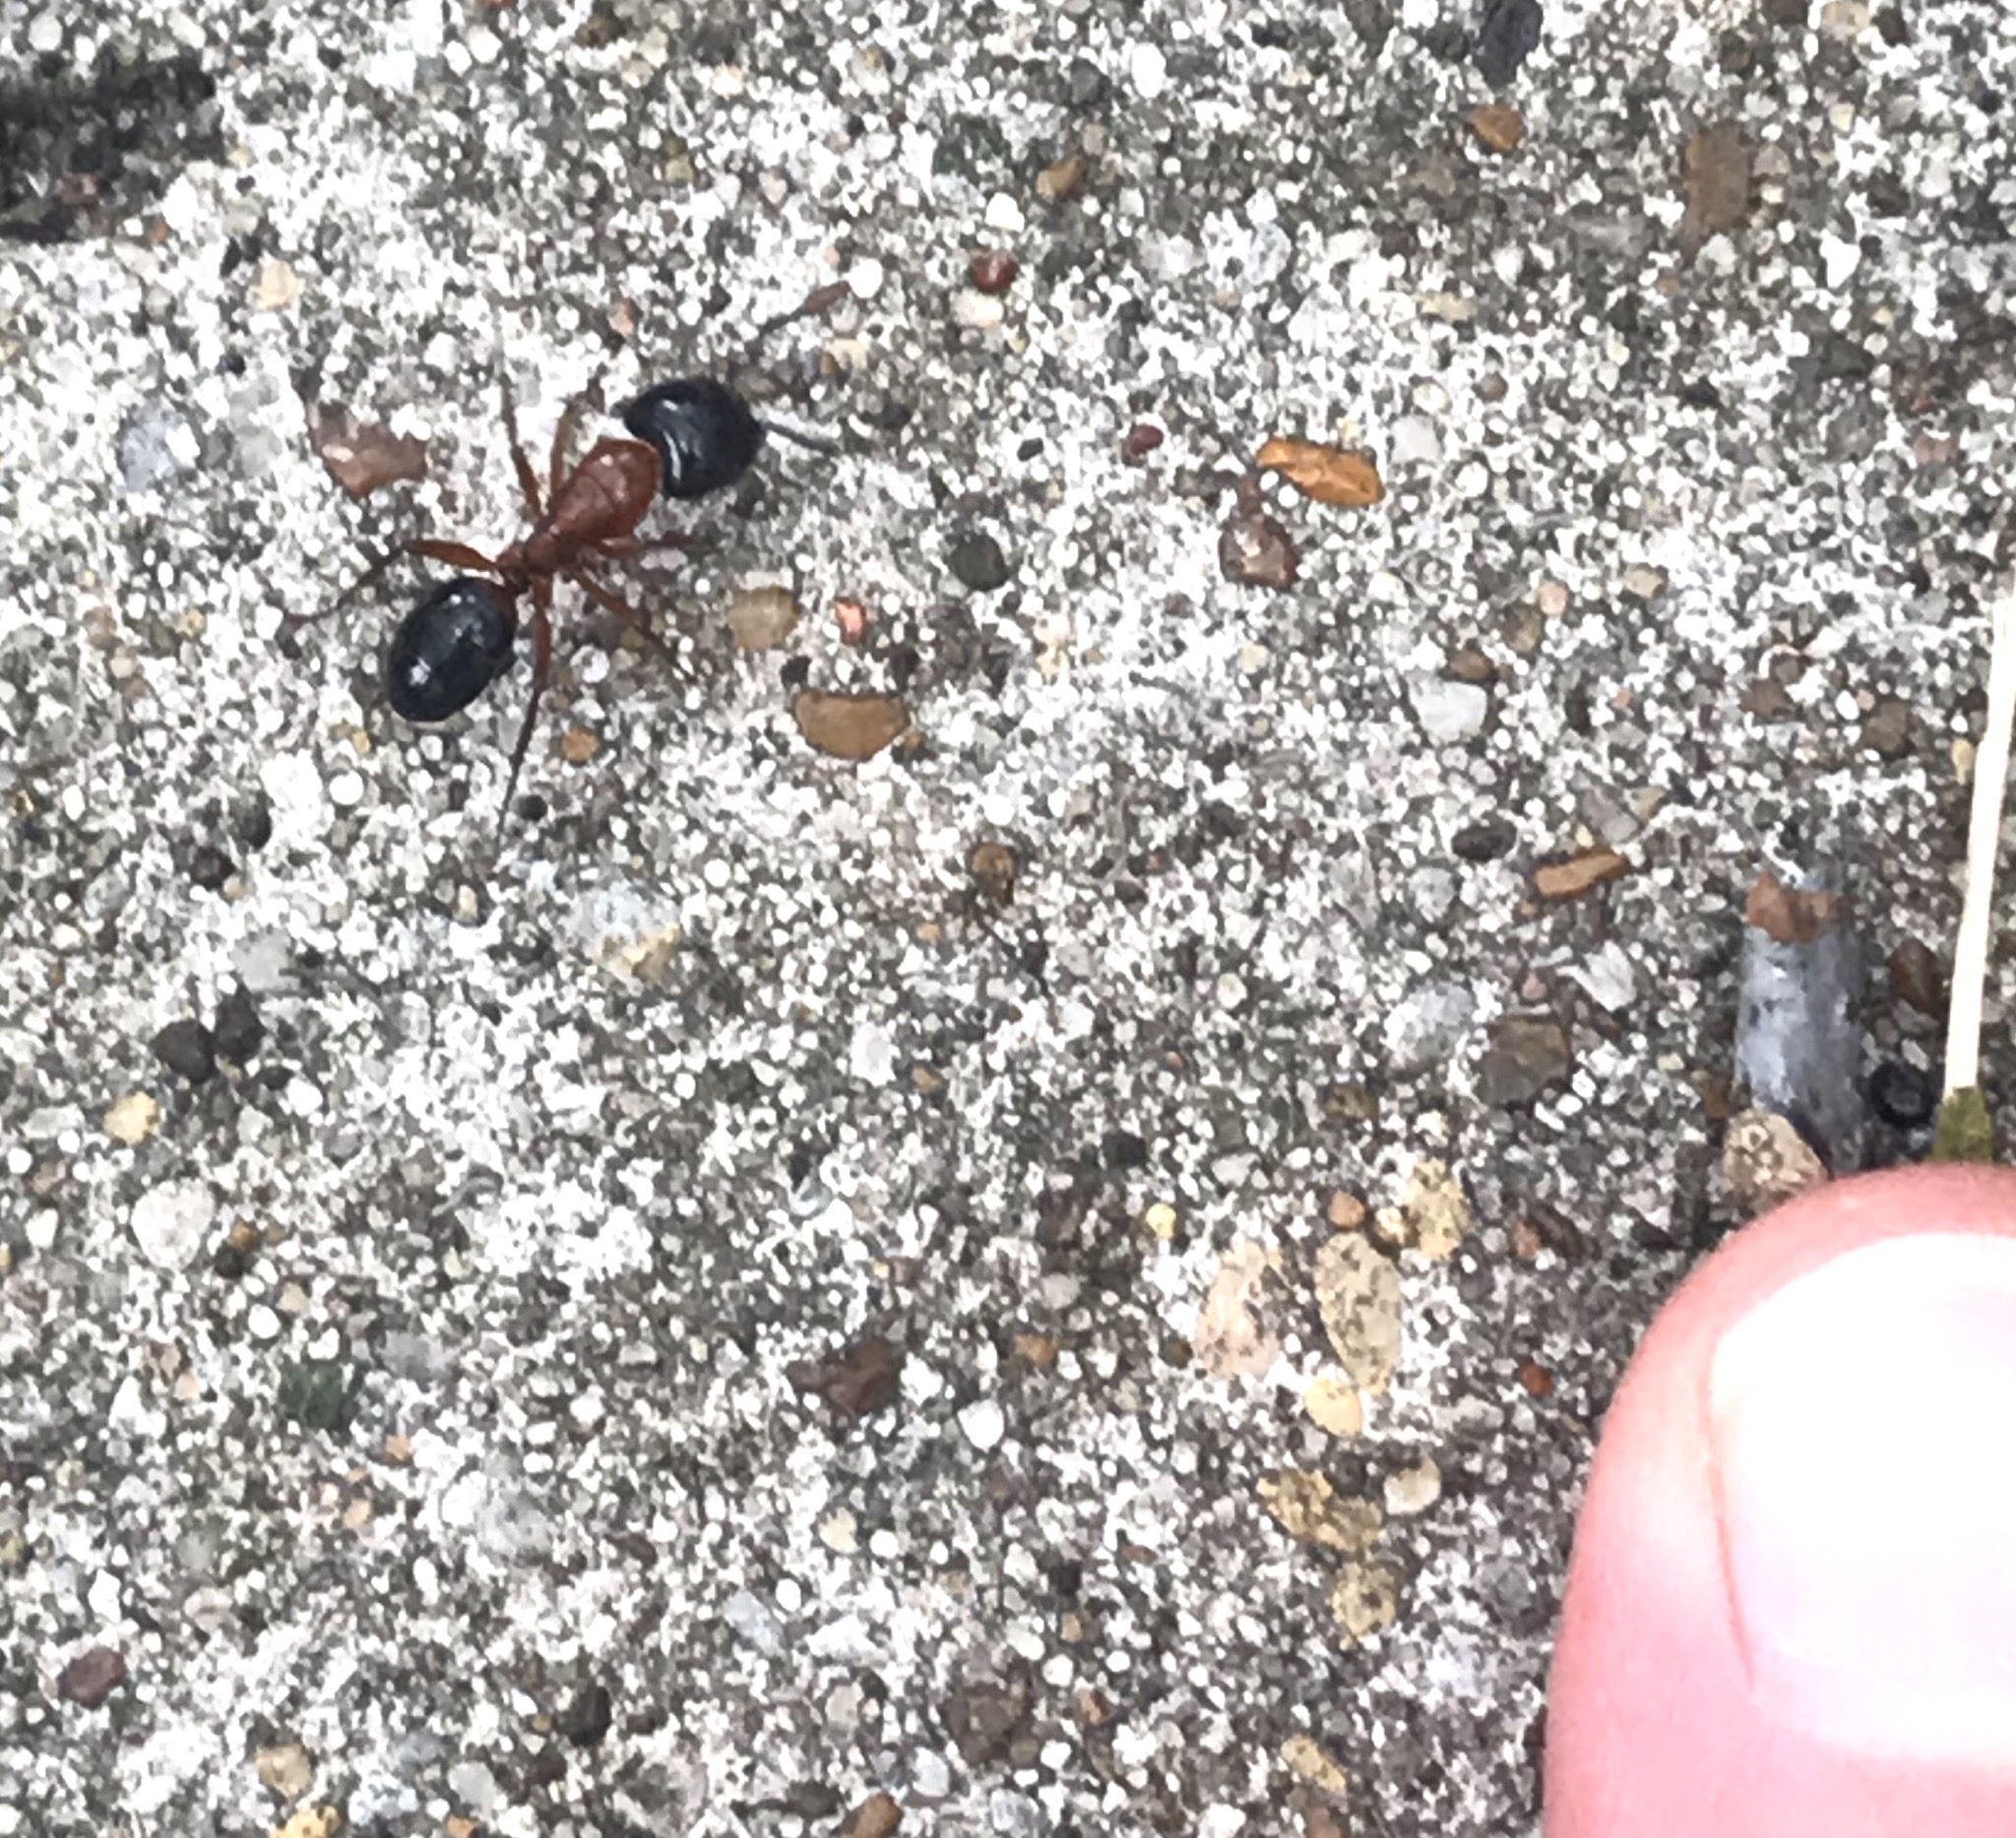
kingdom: Animalia
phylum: Arthropoda
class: Insecta
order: Hymenoptera
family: Formicidae
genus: Camponotus
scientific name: Camponotus texanus
